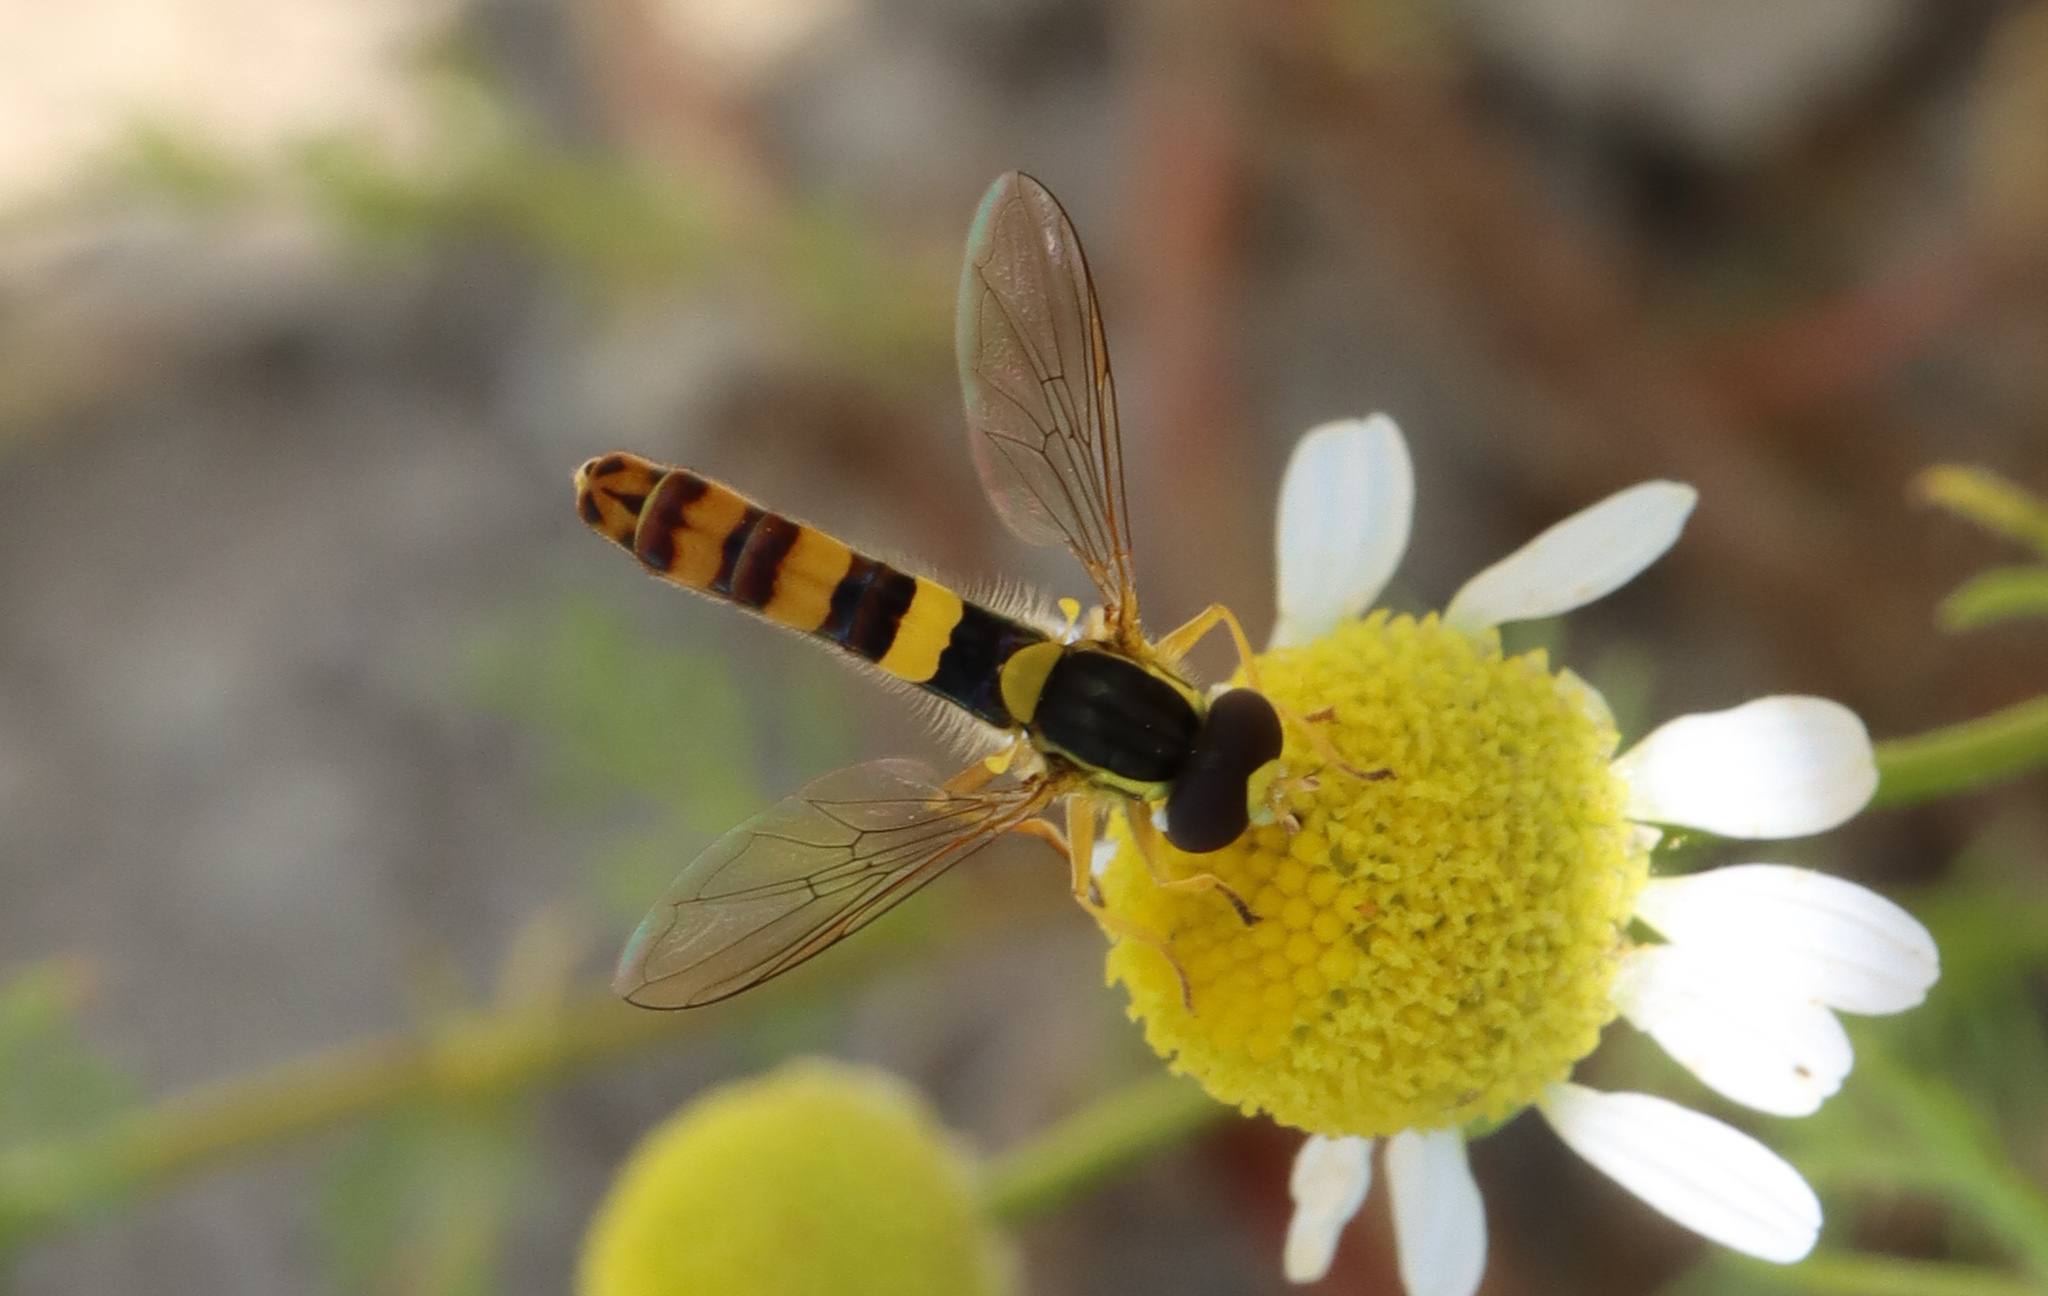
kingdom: Animalia
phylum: Arthropoda
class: Insecta
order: Diptera
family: Syrphidae
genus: Sphaerophoria
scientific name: Sphaerophoria scripta
